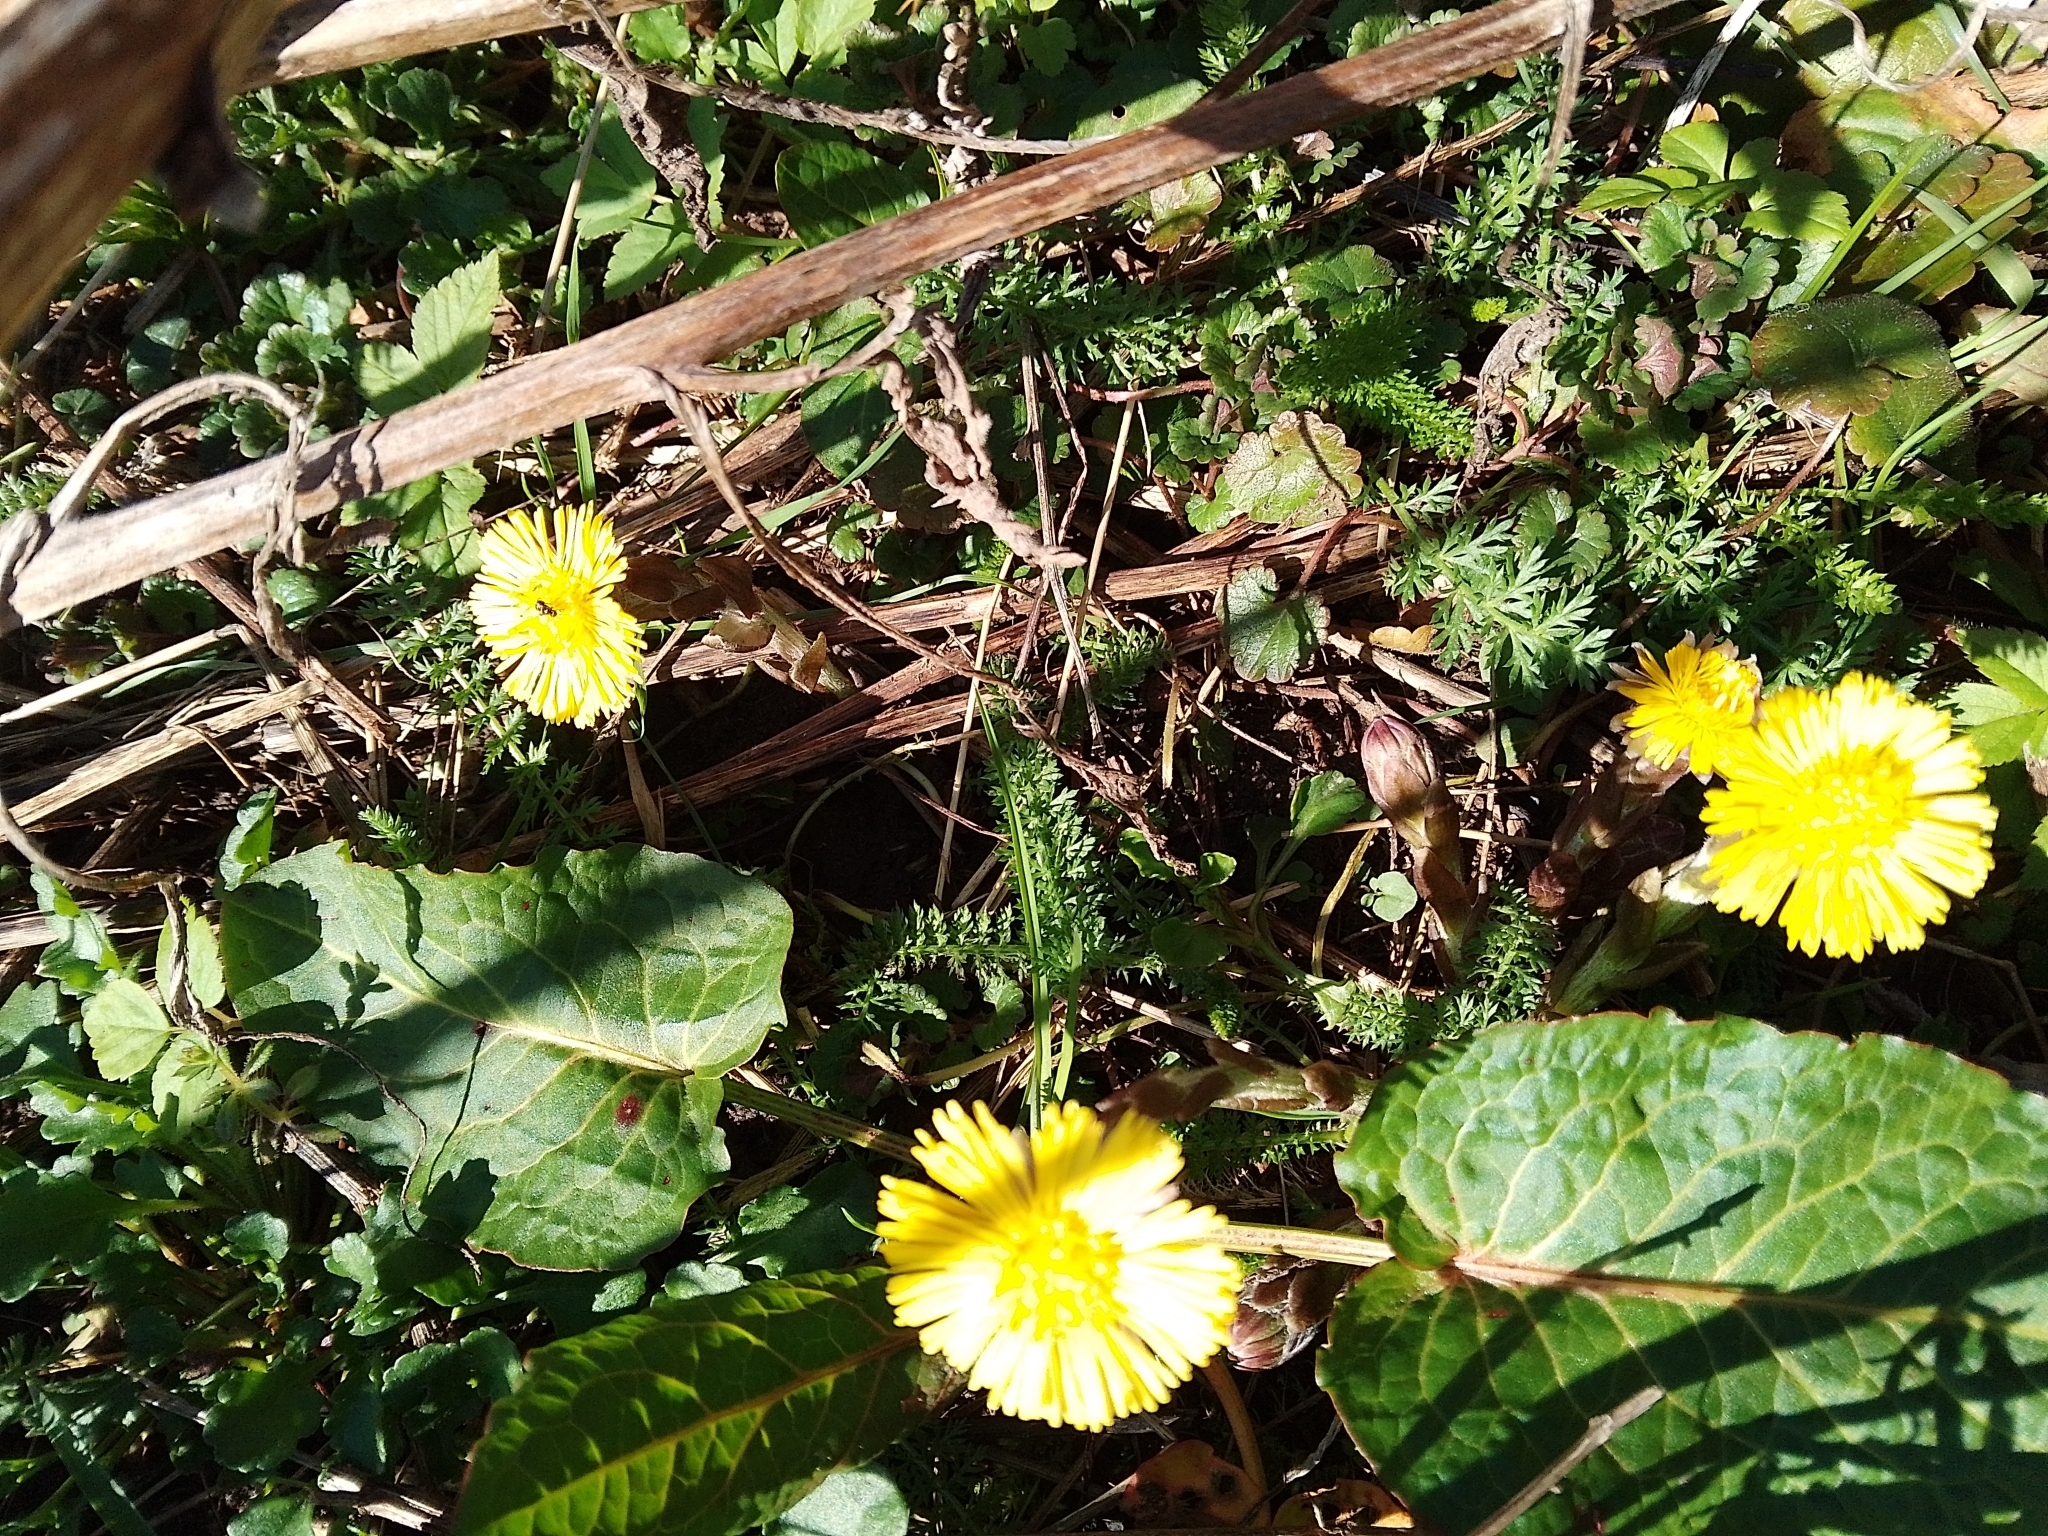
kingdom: Plantae
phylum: Tracheophyta
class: Magnoliopsida
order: Asterales
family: Asteraceae
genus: Tussilago
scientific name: Tussilago farfara
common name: Coltsfoot
